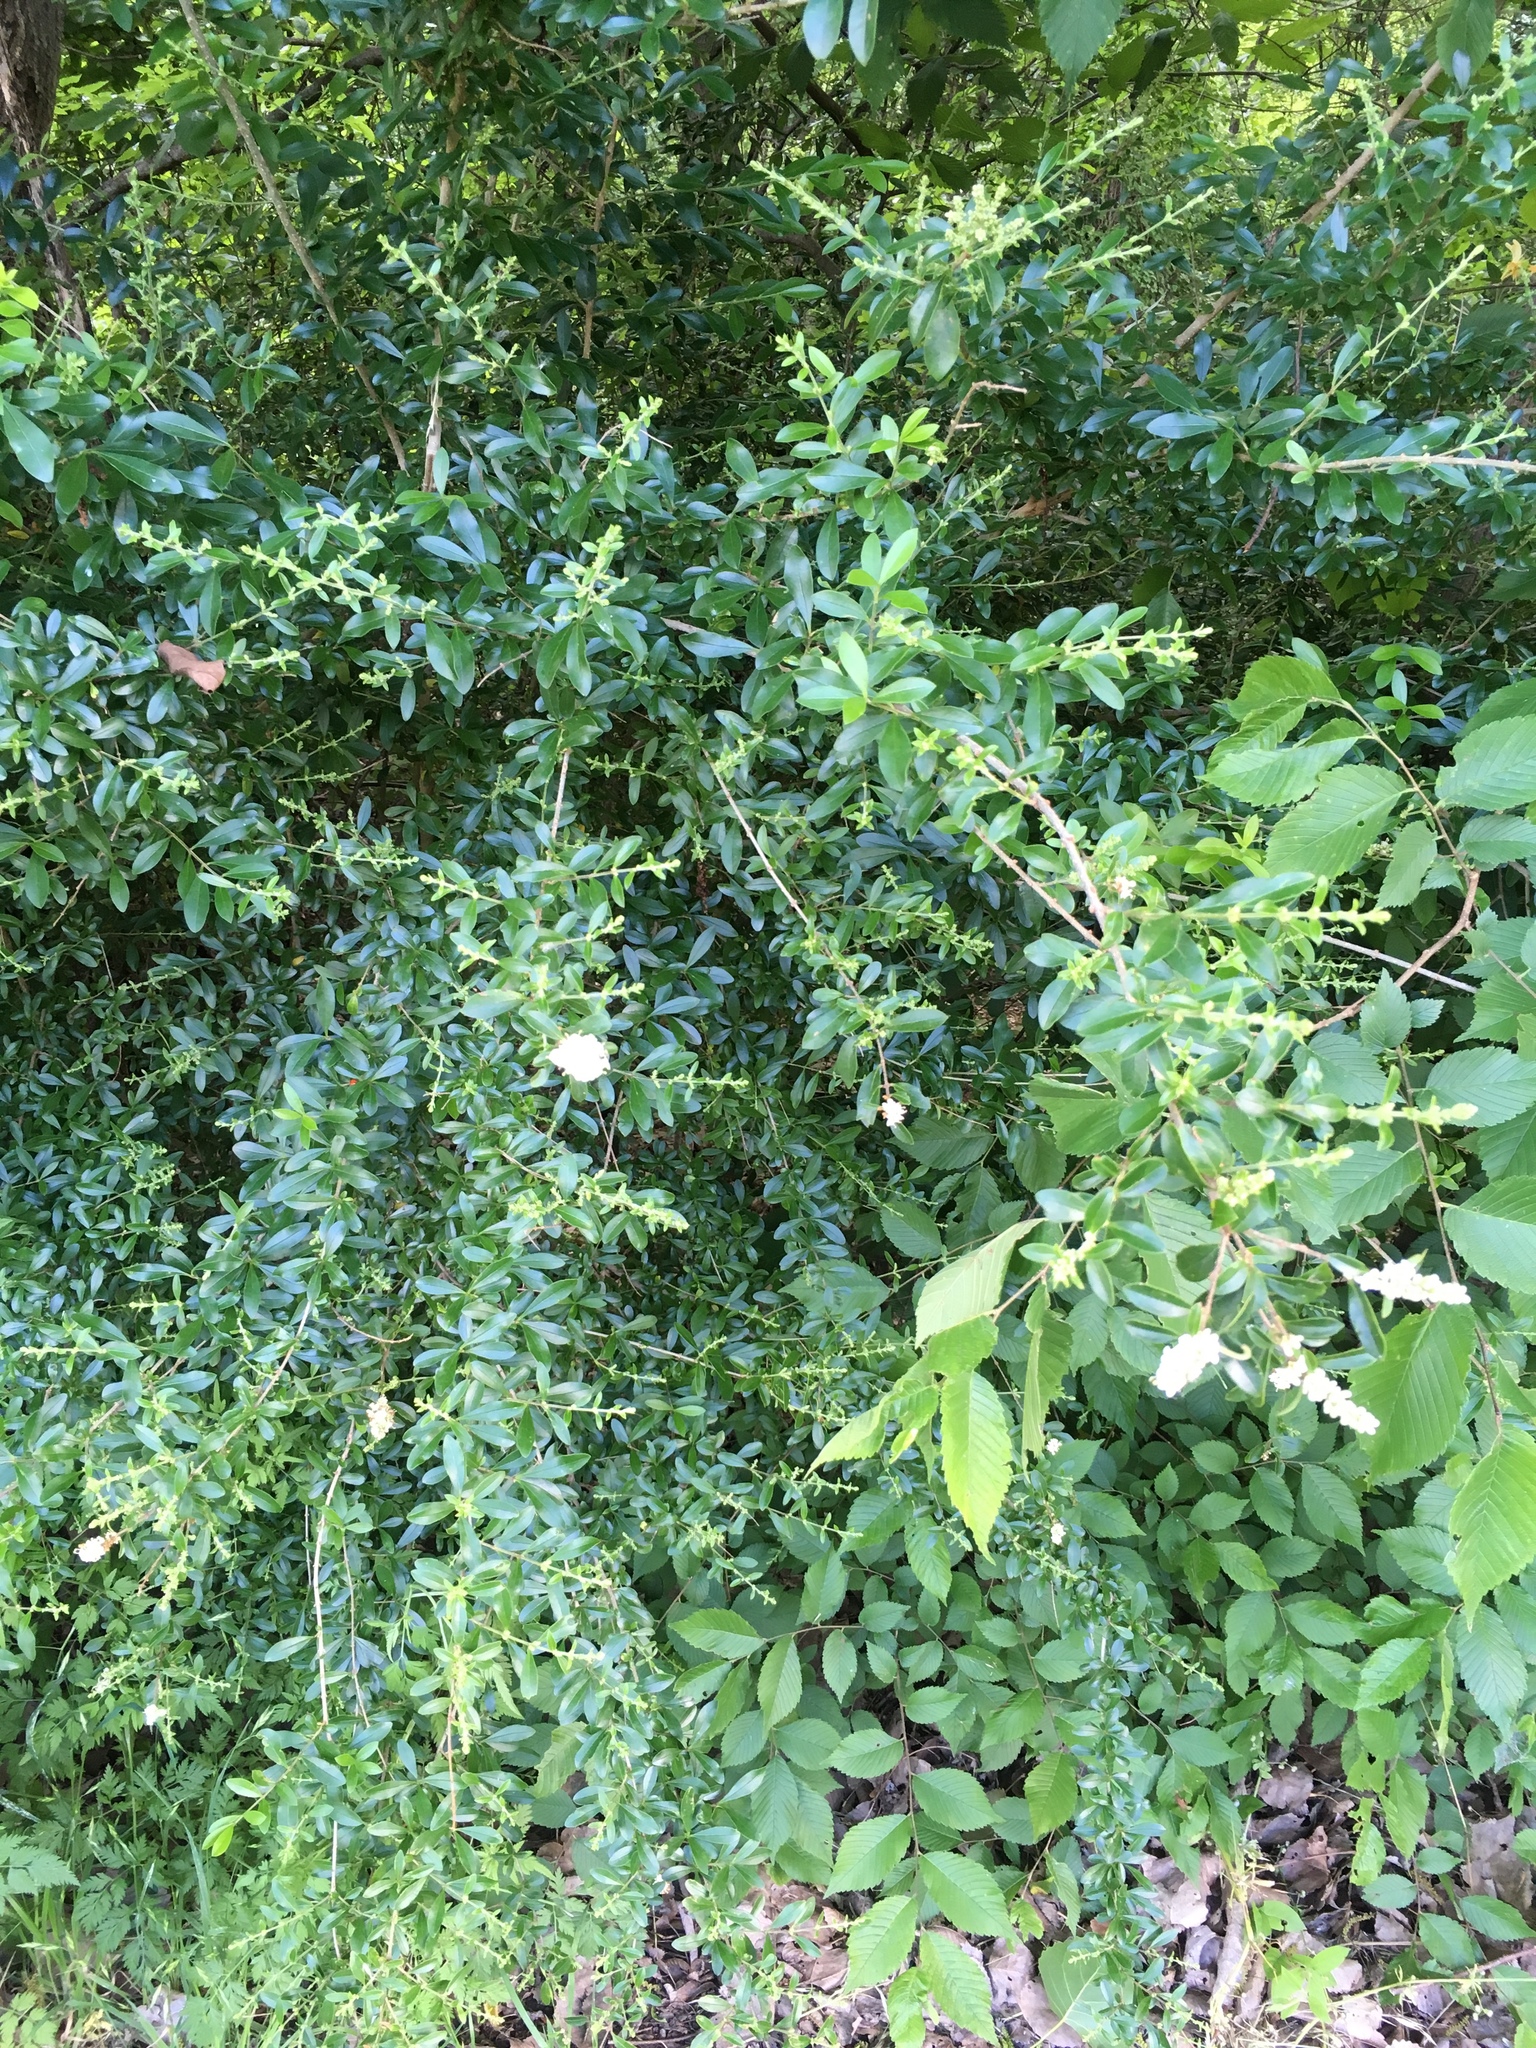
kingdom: Plantae
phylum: Tracheophyta
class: Magnoliopsida
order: Lamiales
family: Oleaceae
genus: Ligustrum
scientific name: Ligustrum quihoui
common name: Waxyleaf privet
